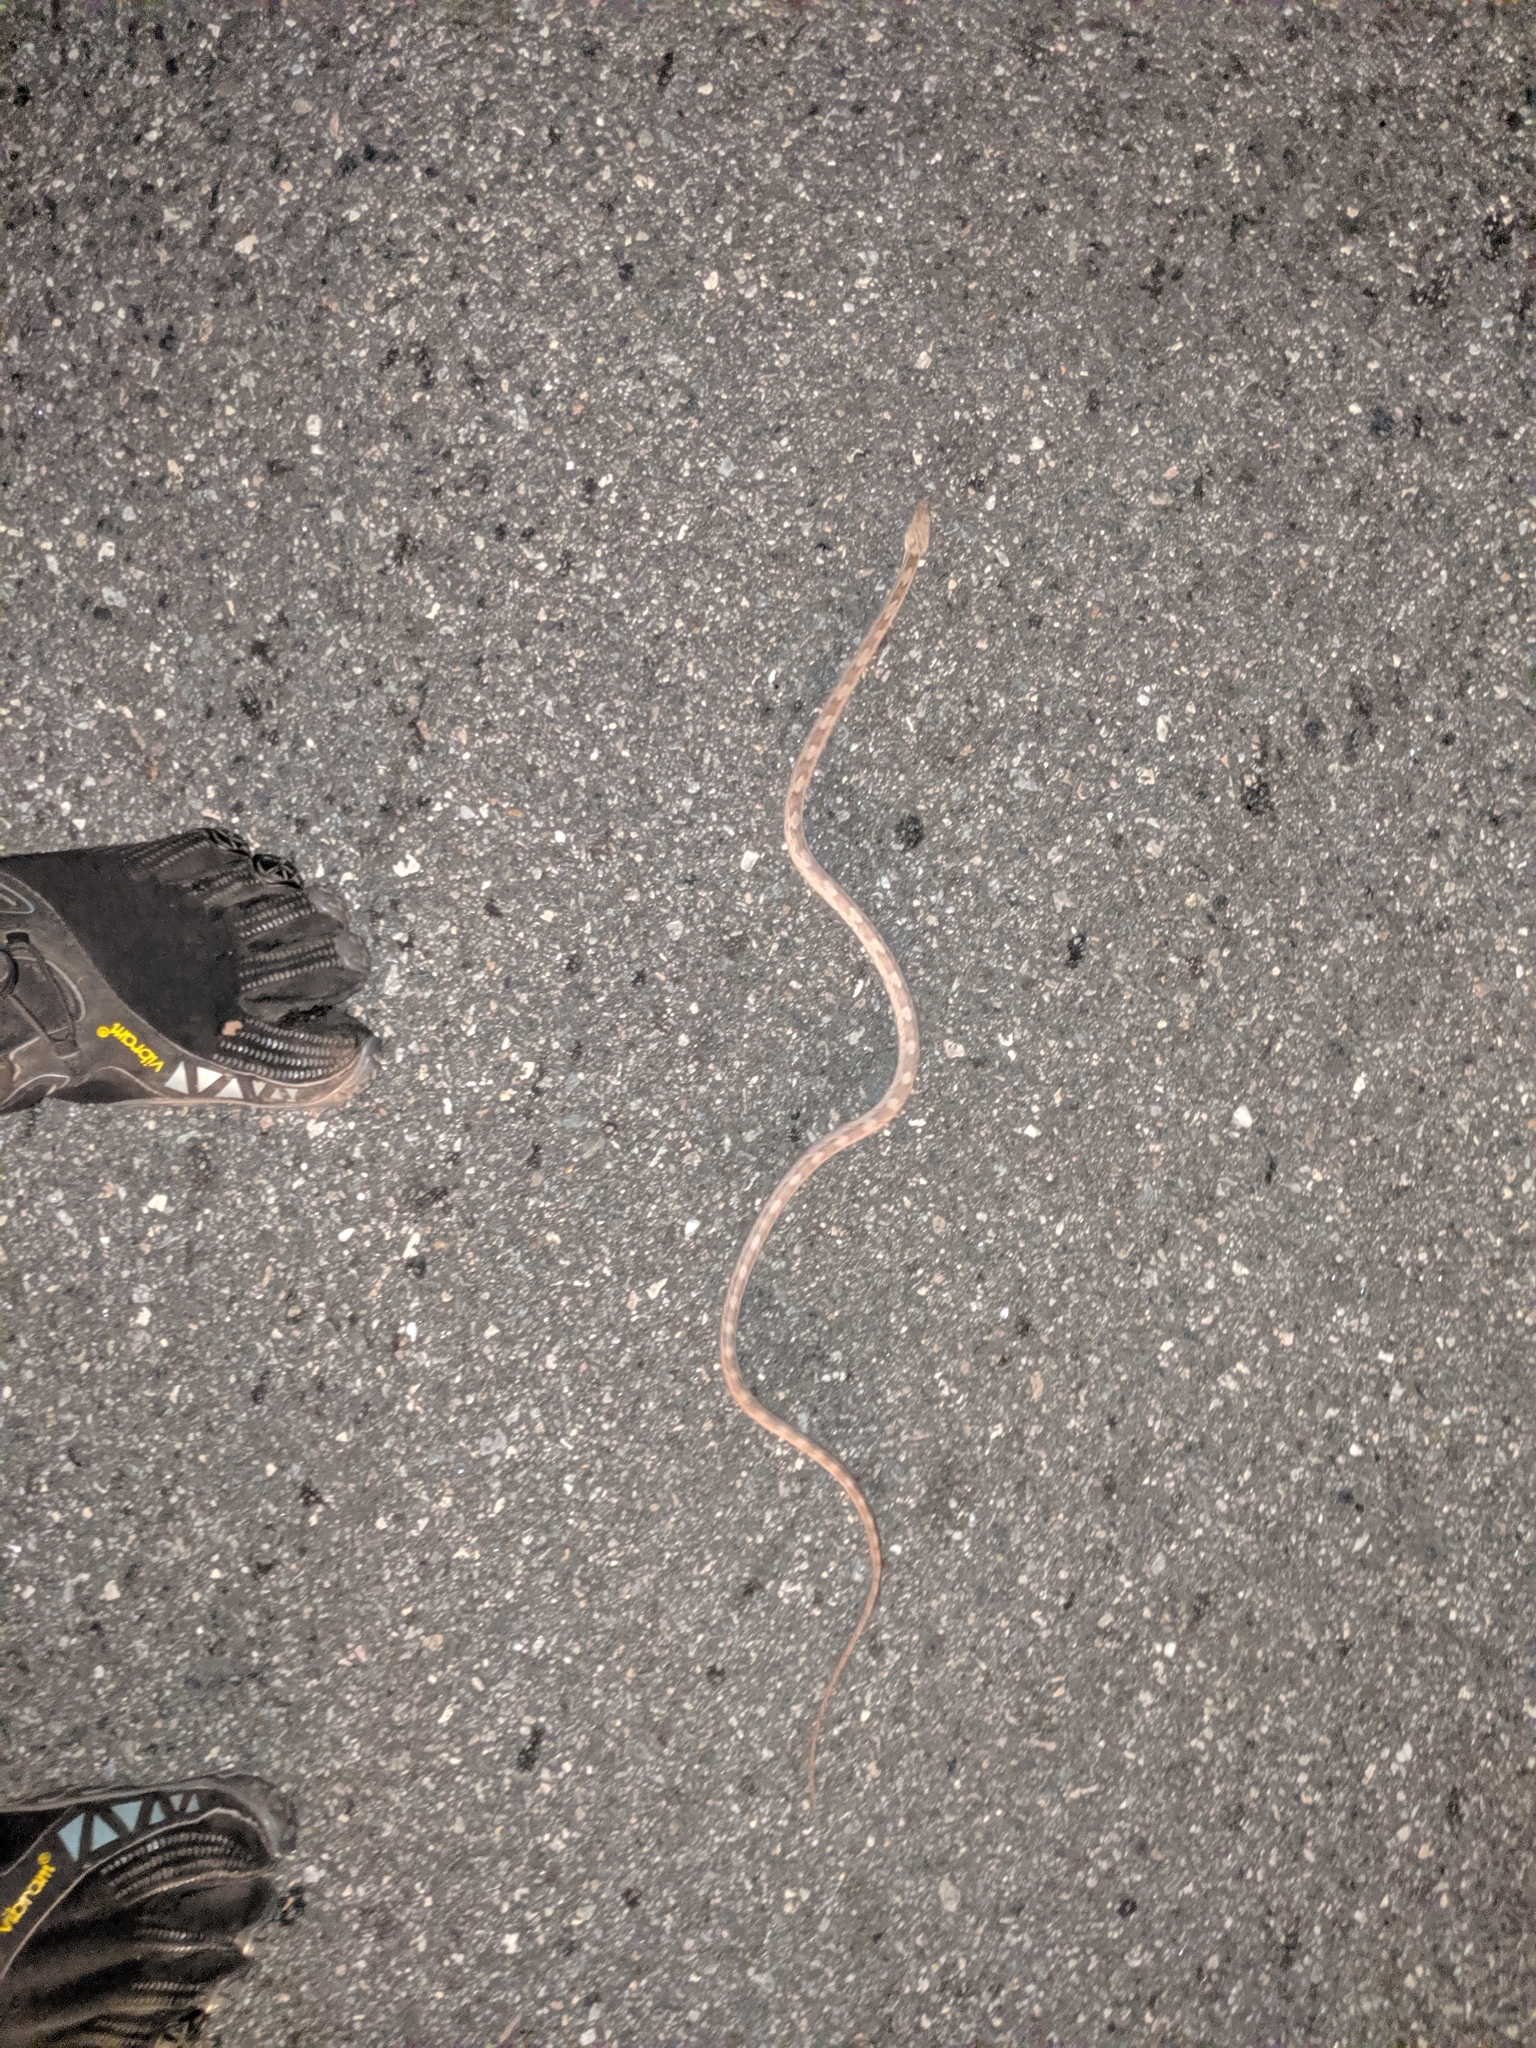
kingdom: Animalia
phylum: Chordata
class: Squamata
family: Colubridae
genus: Pantherophis
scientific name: Pantherophis spiloides
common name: Gray rat snake
